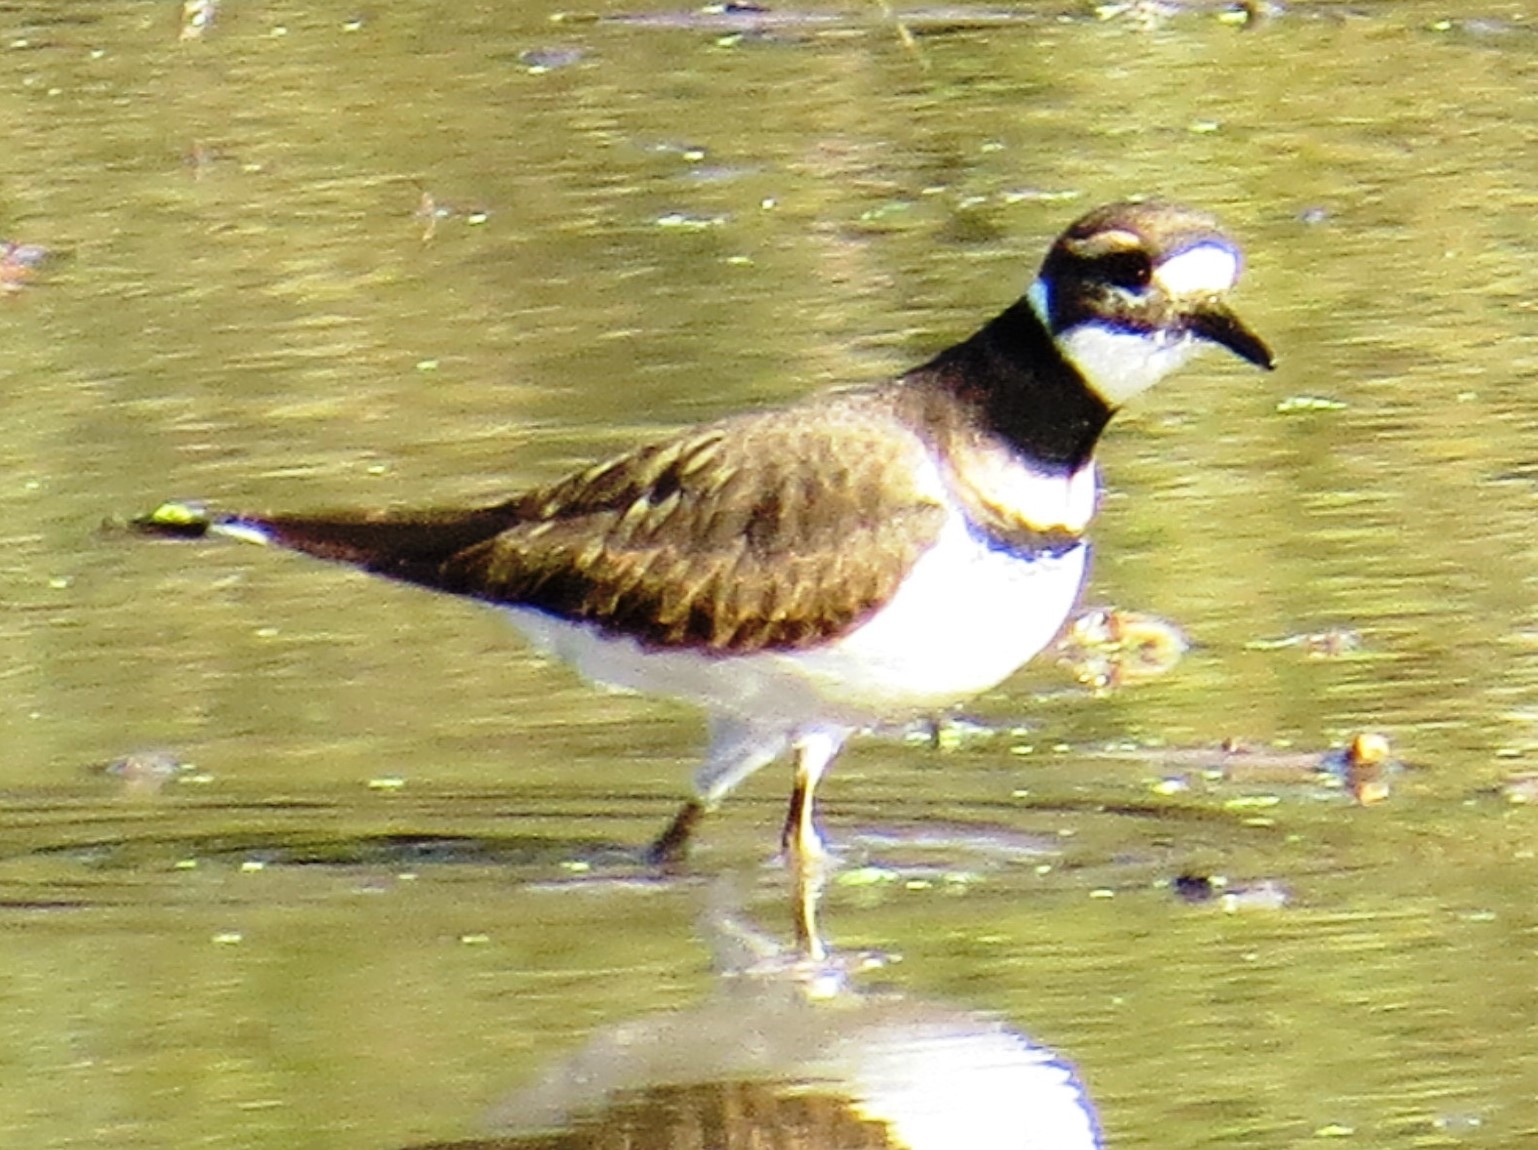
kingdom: Animalia
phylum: Chordata
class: Aves
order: Charadriiformes
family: Charadriidae
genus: Charadrius
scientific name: Charadrius vociferus
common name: Killdeer
